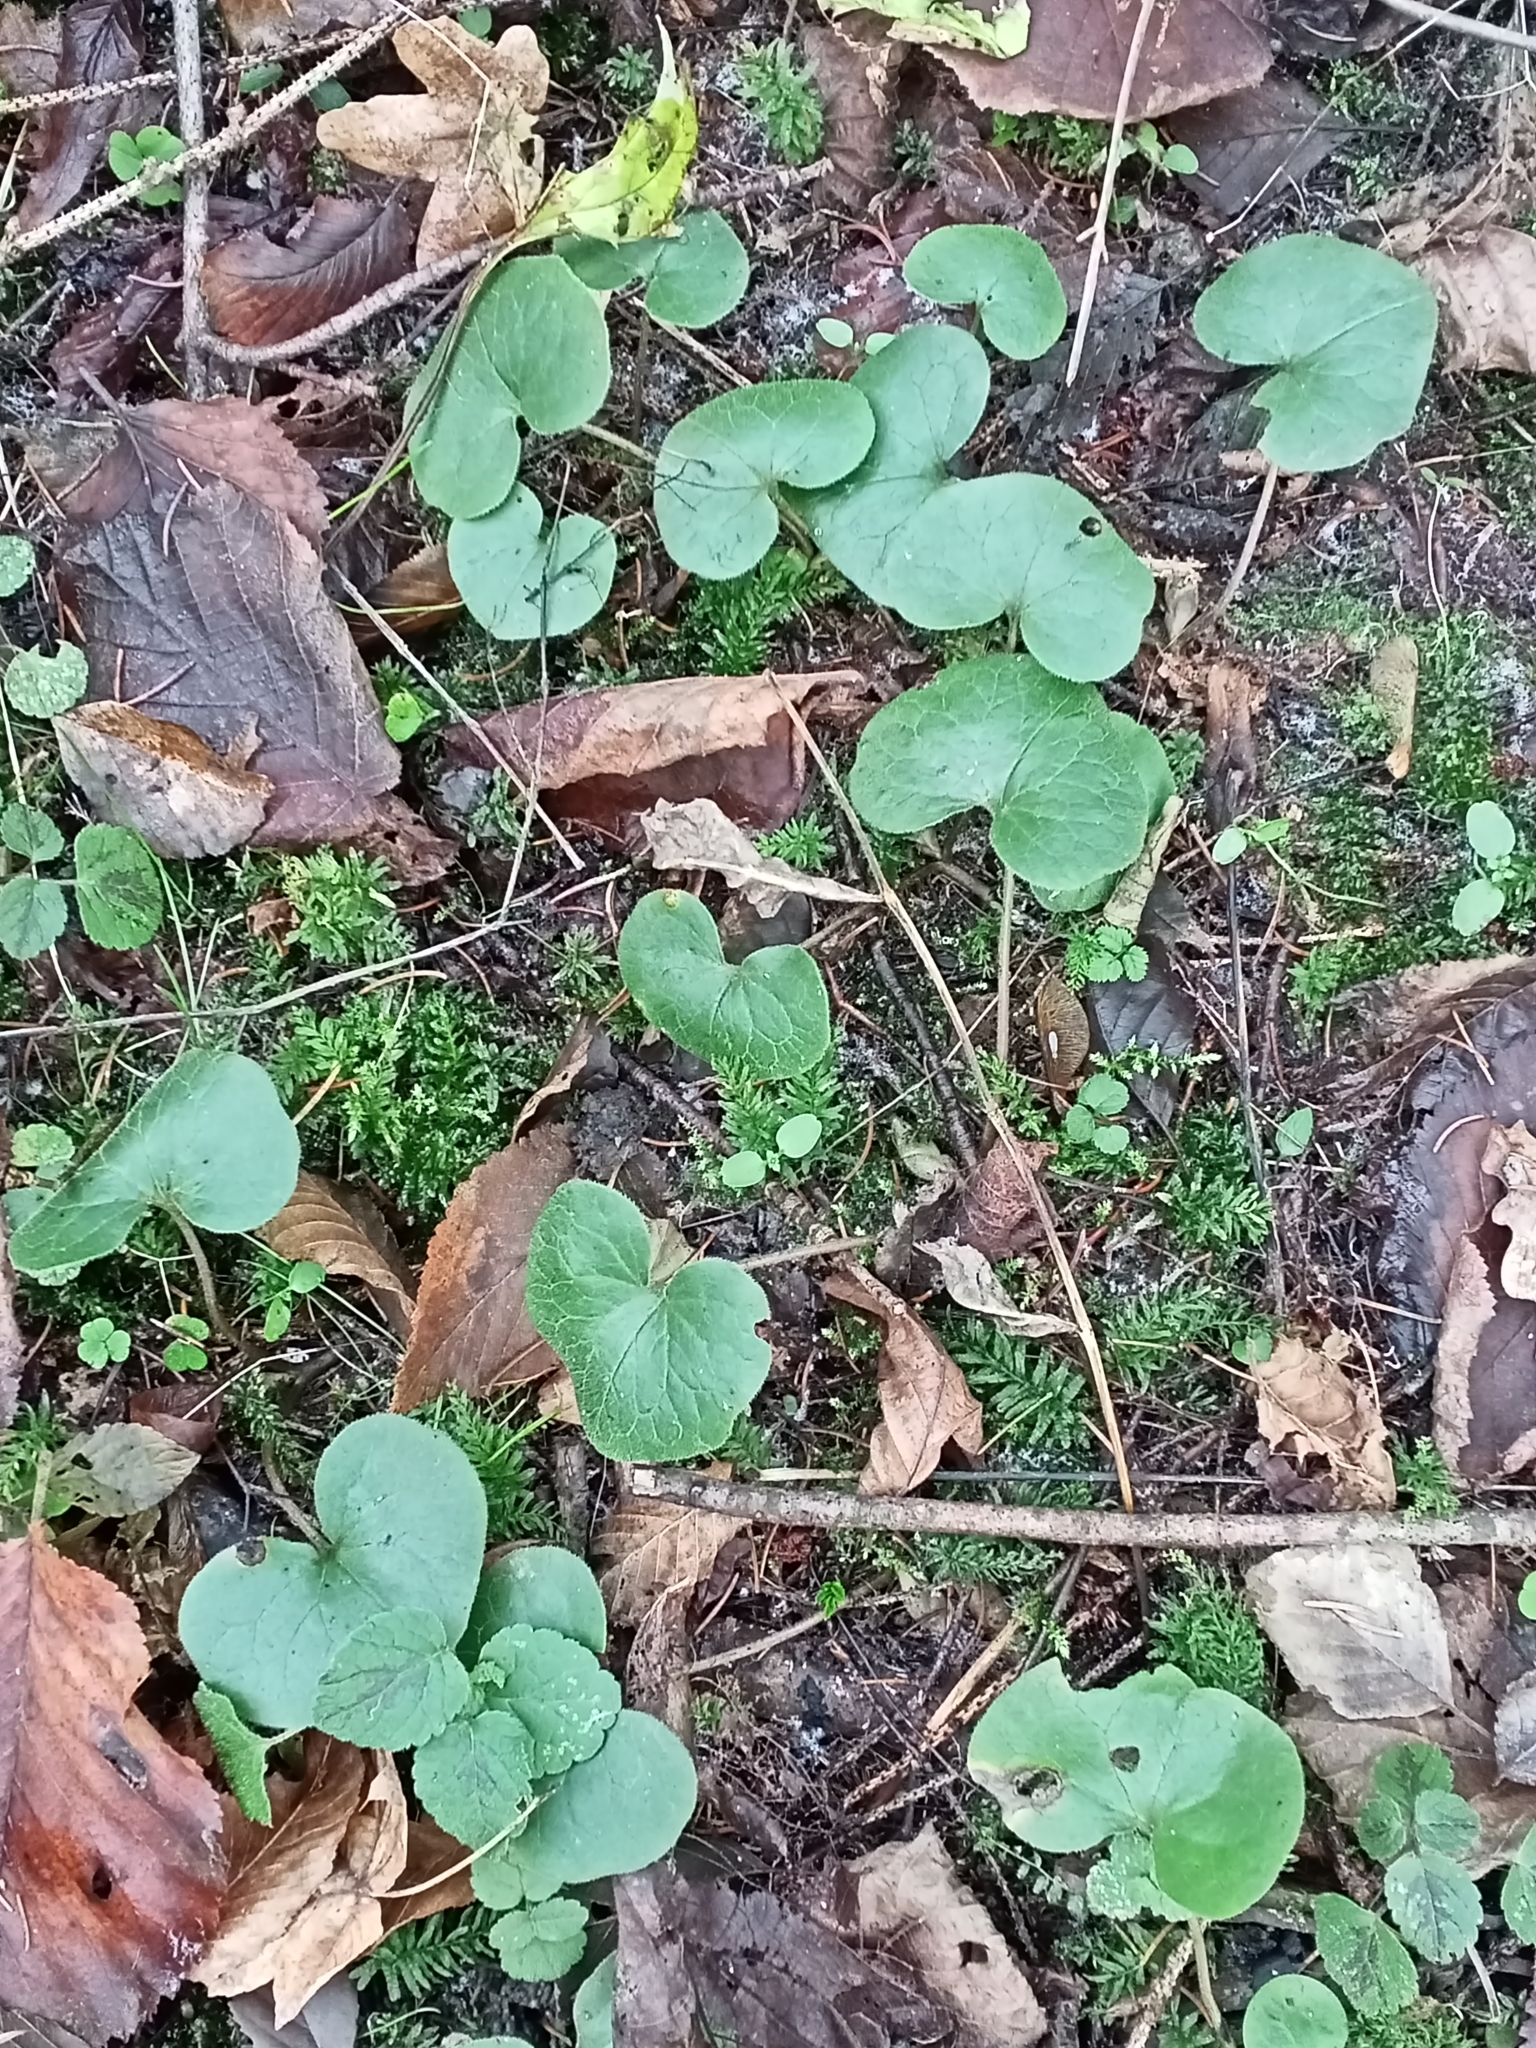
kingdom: Plantae
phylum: Tracheophyta
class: Magnoliopsida
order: Piperales
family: Aristolochiaceae
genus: Asarum
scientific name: Asarum europaeum
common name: Asarabacca
